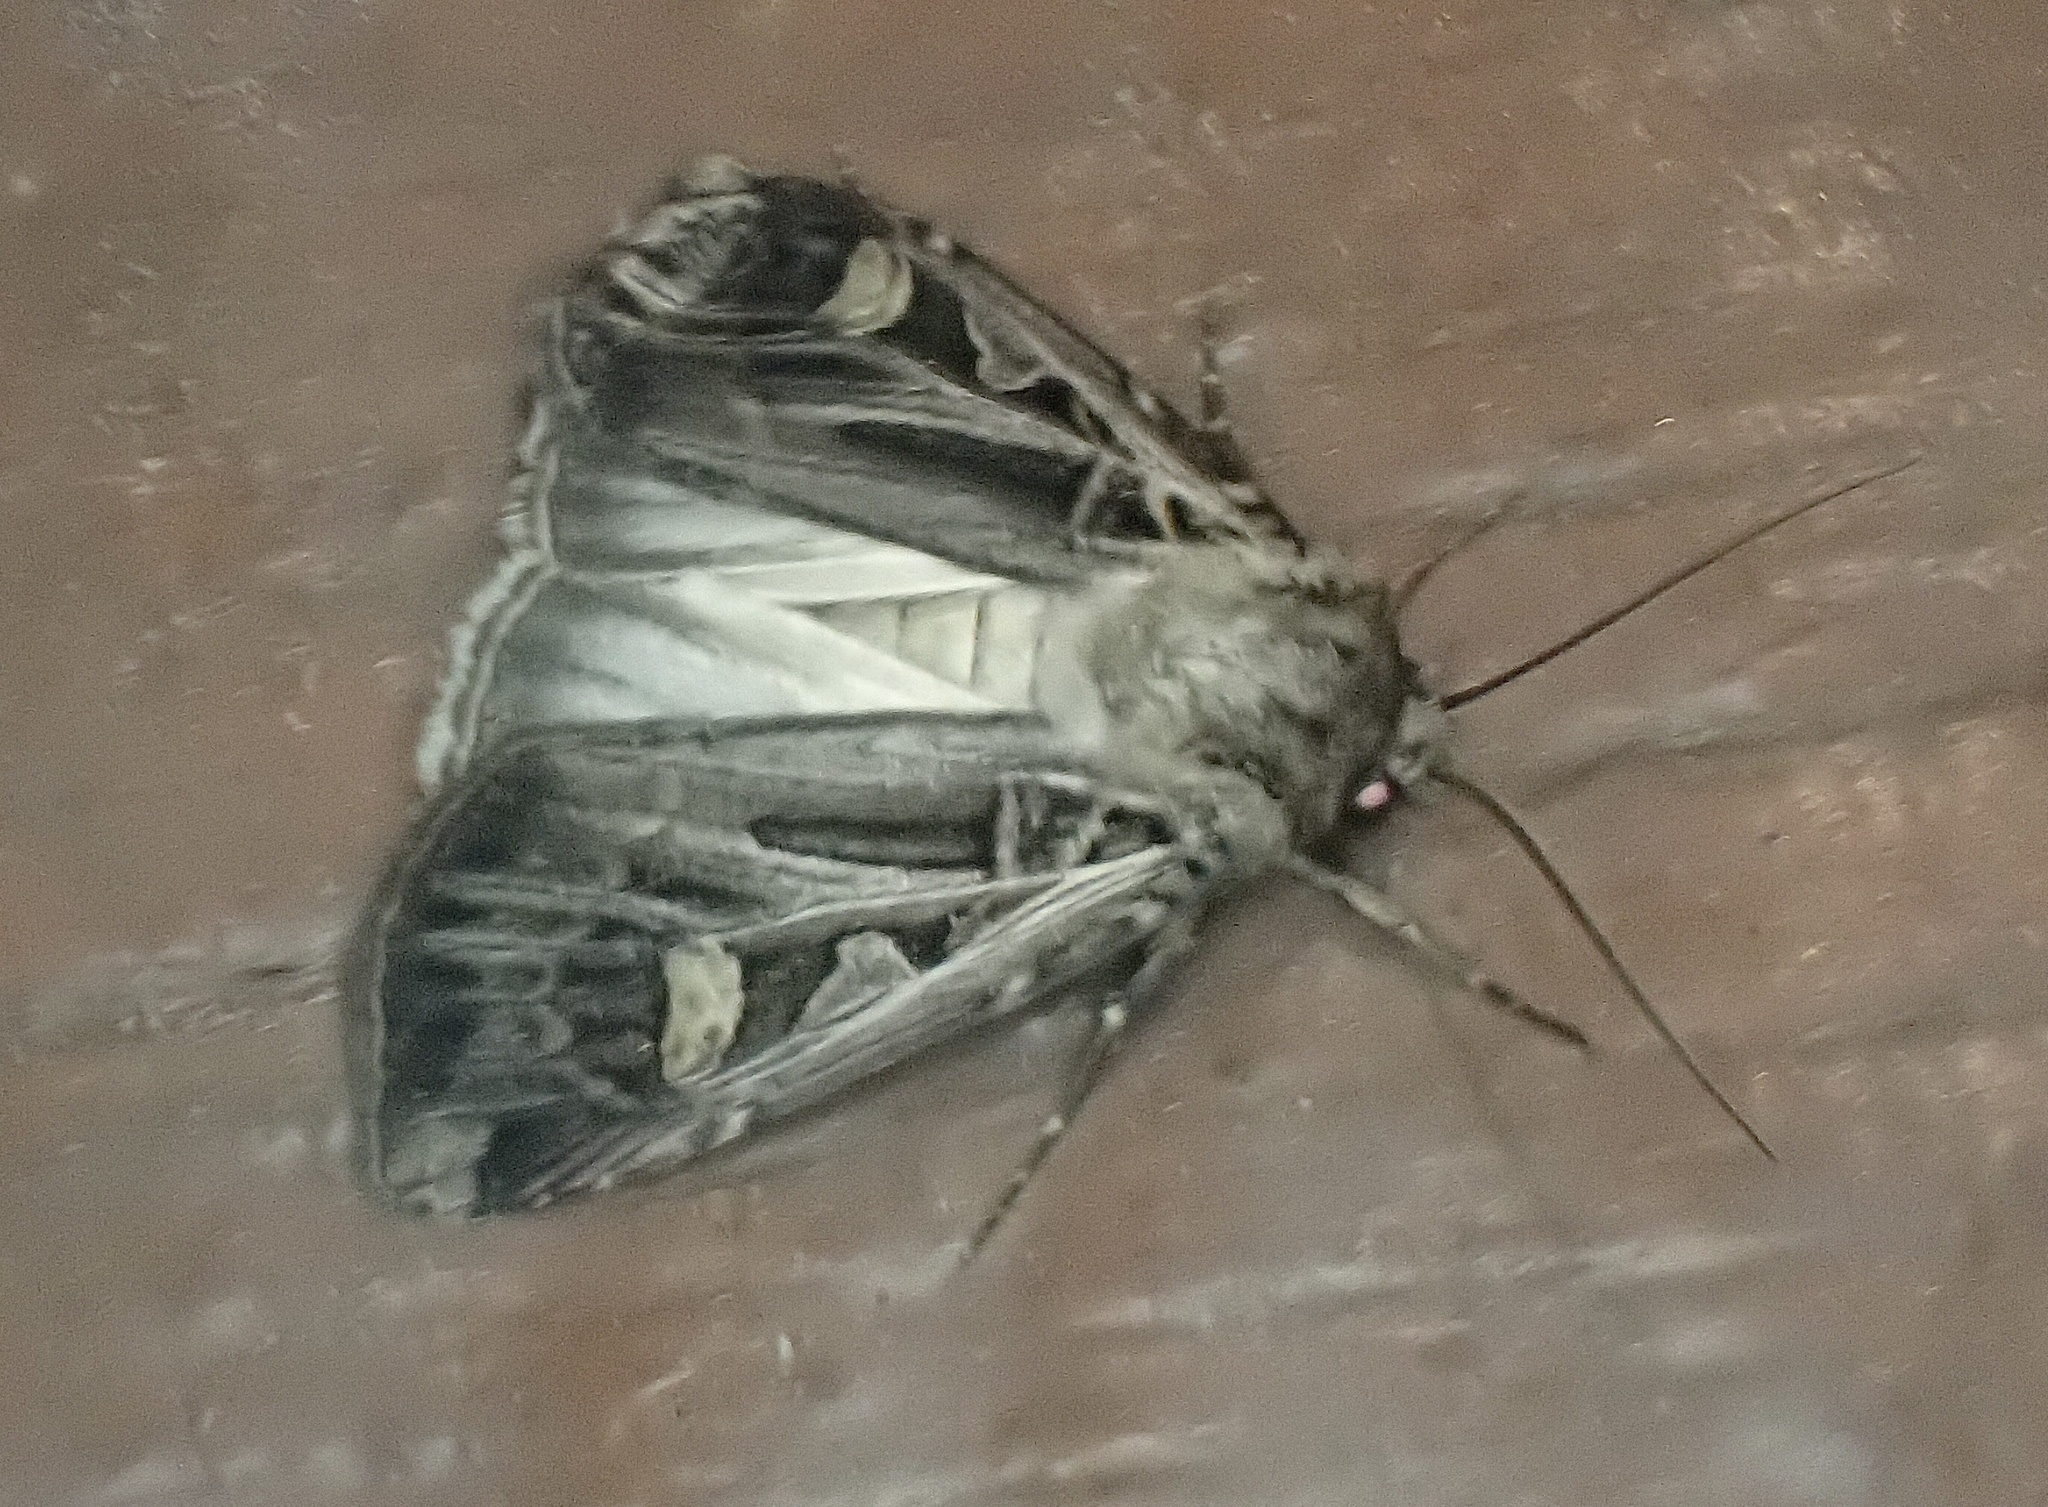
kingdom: Animalia
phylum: Arthropoda
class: Insecta
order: Lepidoptera
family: Noctuidae
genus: Feltia
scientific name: Feltia jaculifera
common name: Dingy cutworm moth
